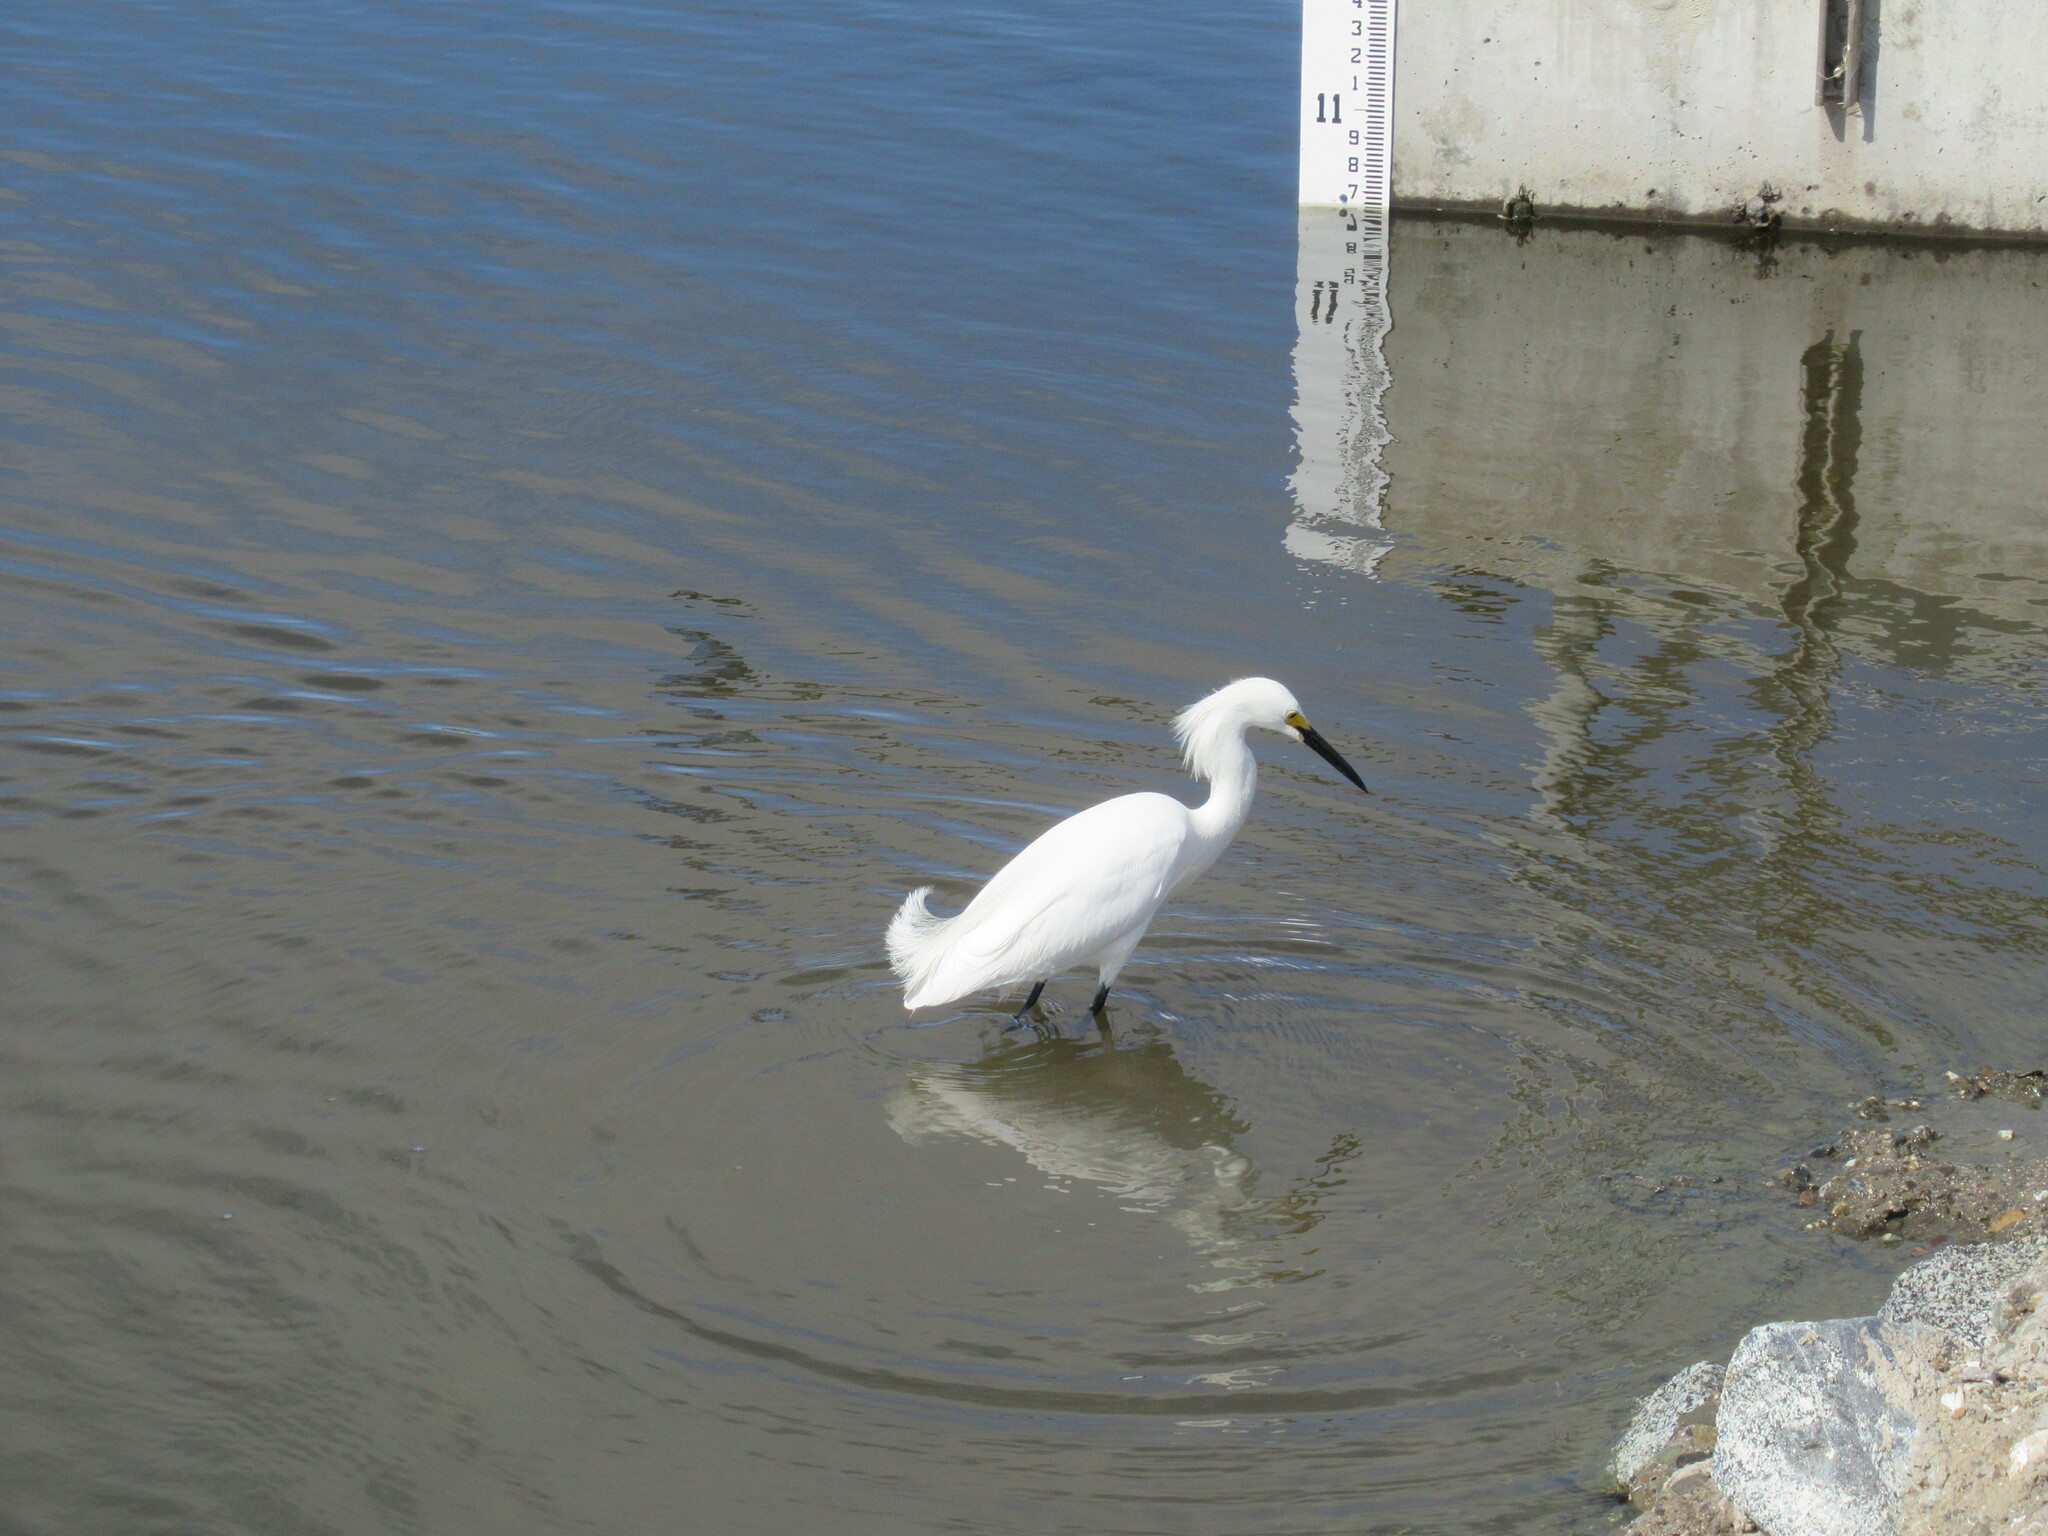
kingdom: Animalia
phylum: Chordata
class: Aves
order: Pelecaniformes
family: Ardeidae
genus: Egretta
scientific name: Egretta thula
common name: Snowy egret
